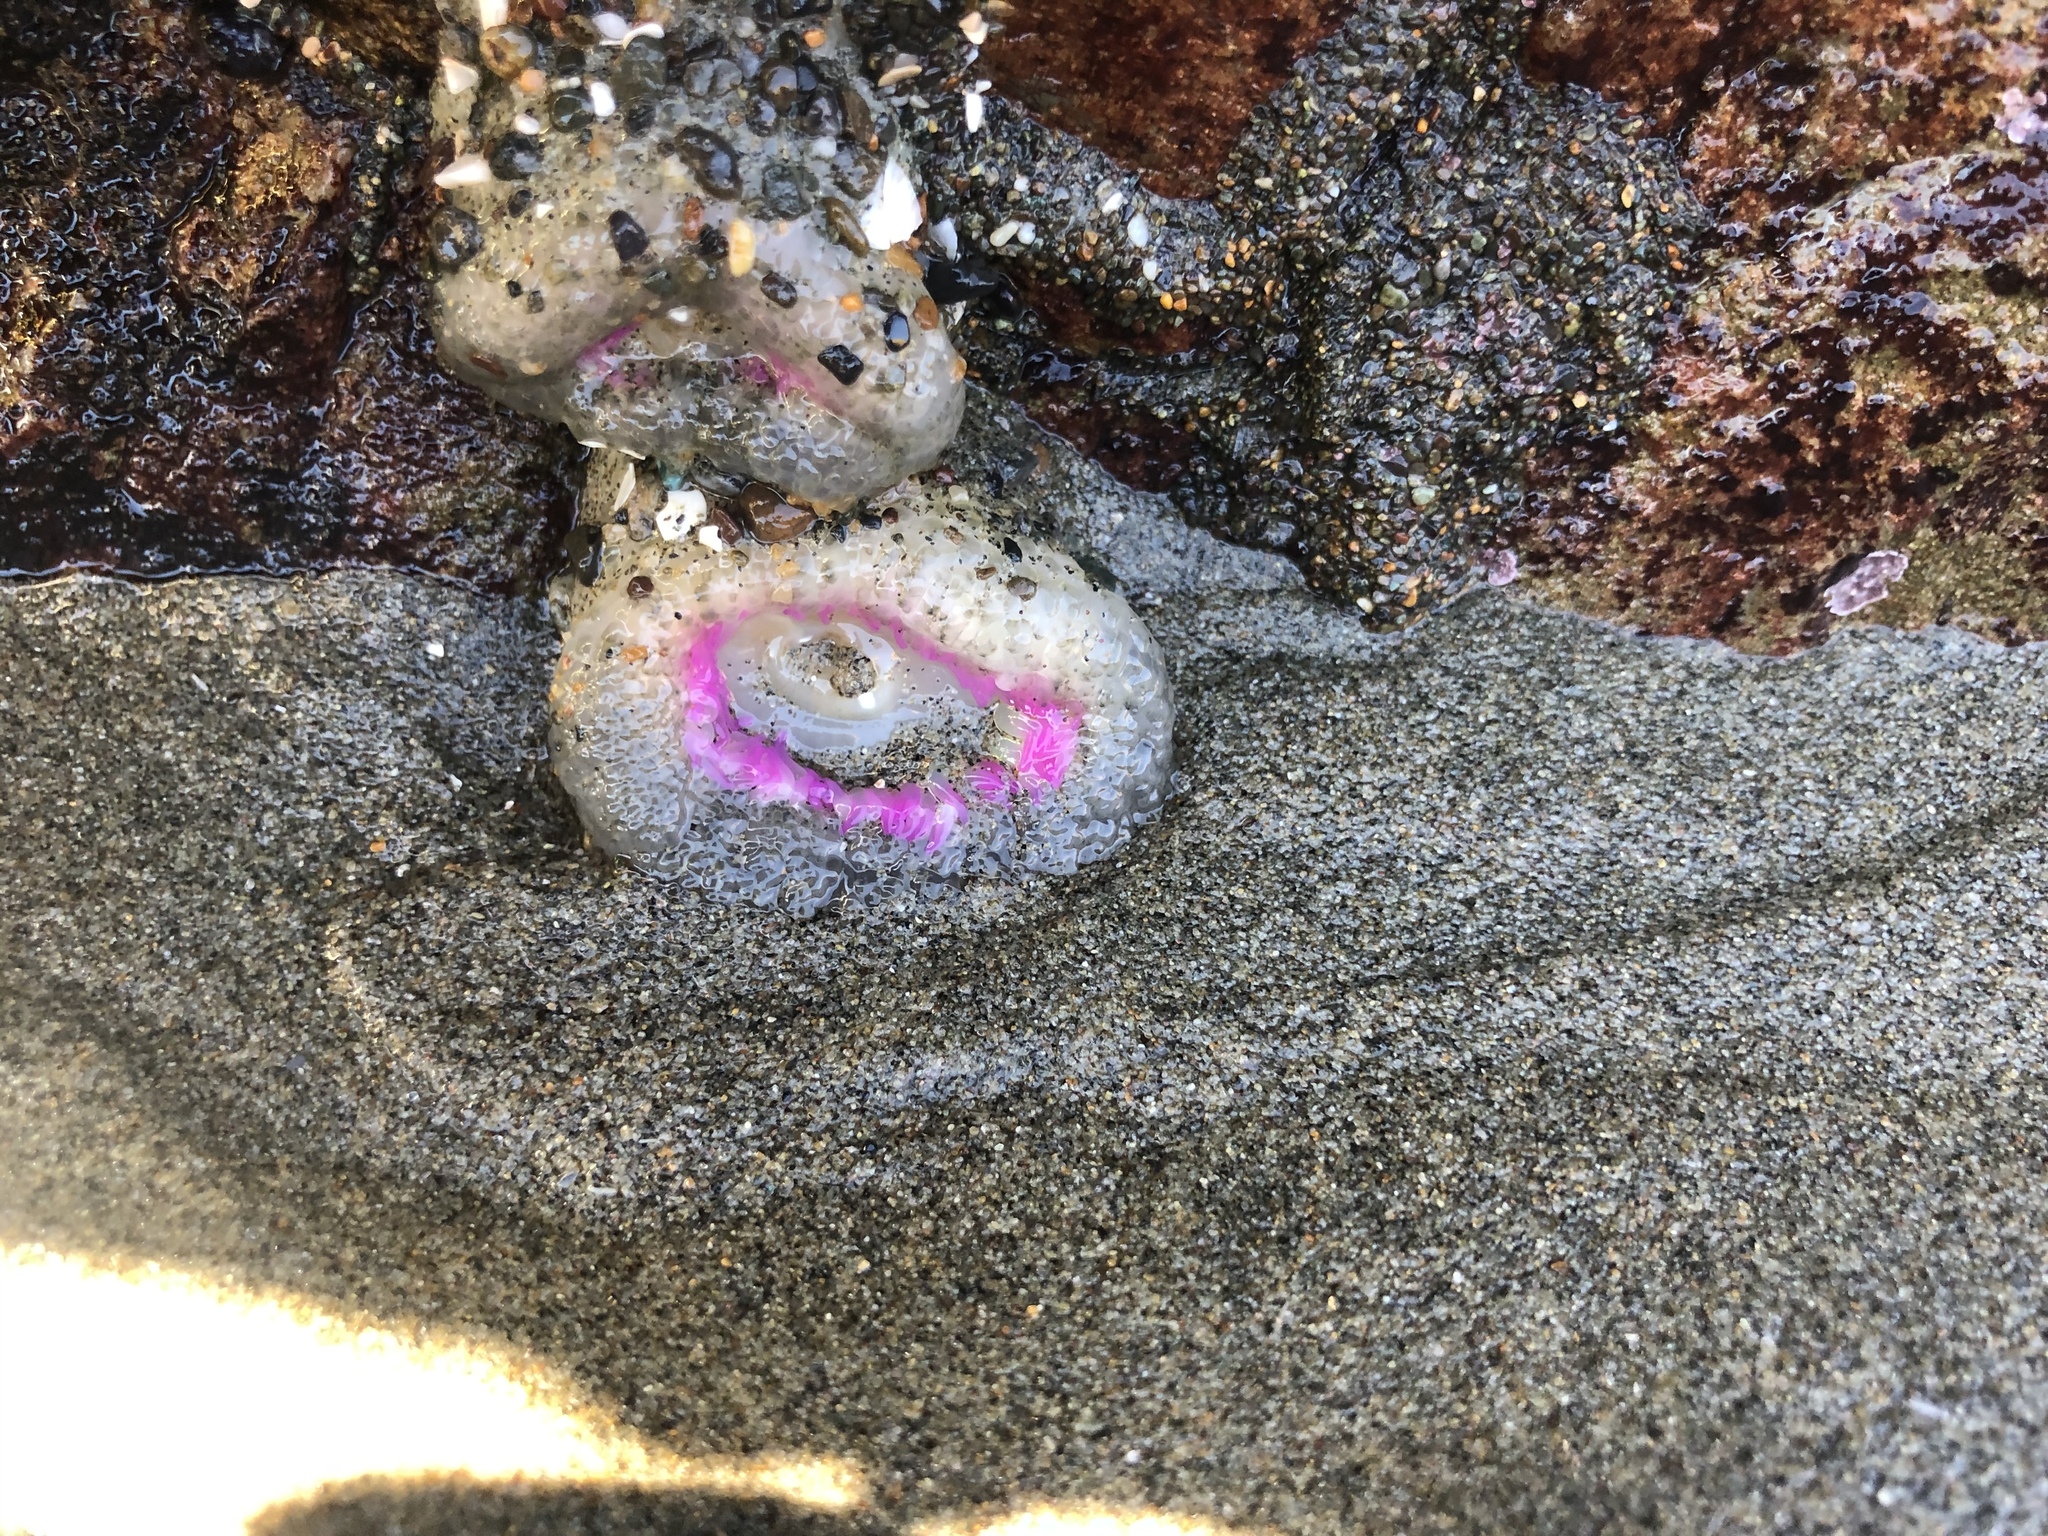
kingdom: Animalia
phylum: Cnidaria
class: Anthozoa
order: Actiniaria
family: Actiniidae
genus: Anthopleura
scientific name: Anthopleura elegantissima
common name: Clonal anemone
